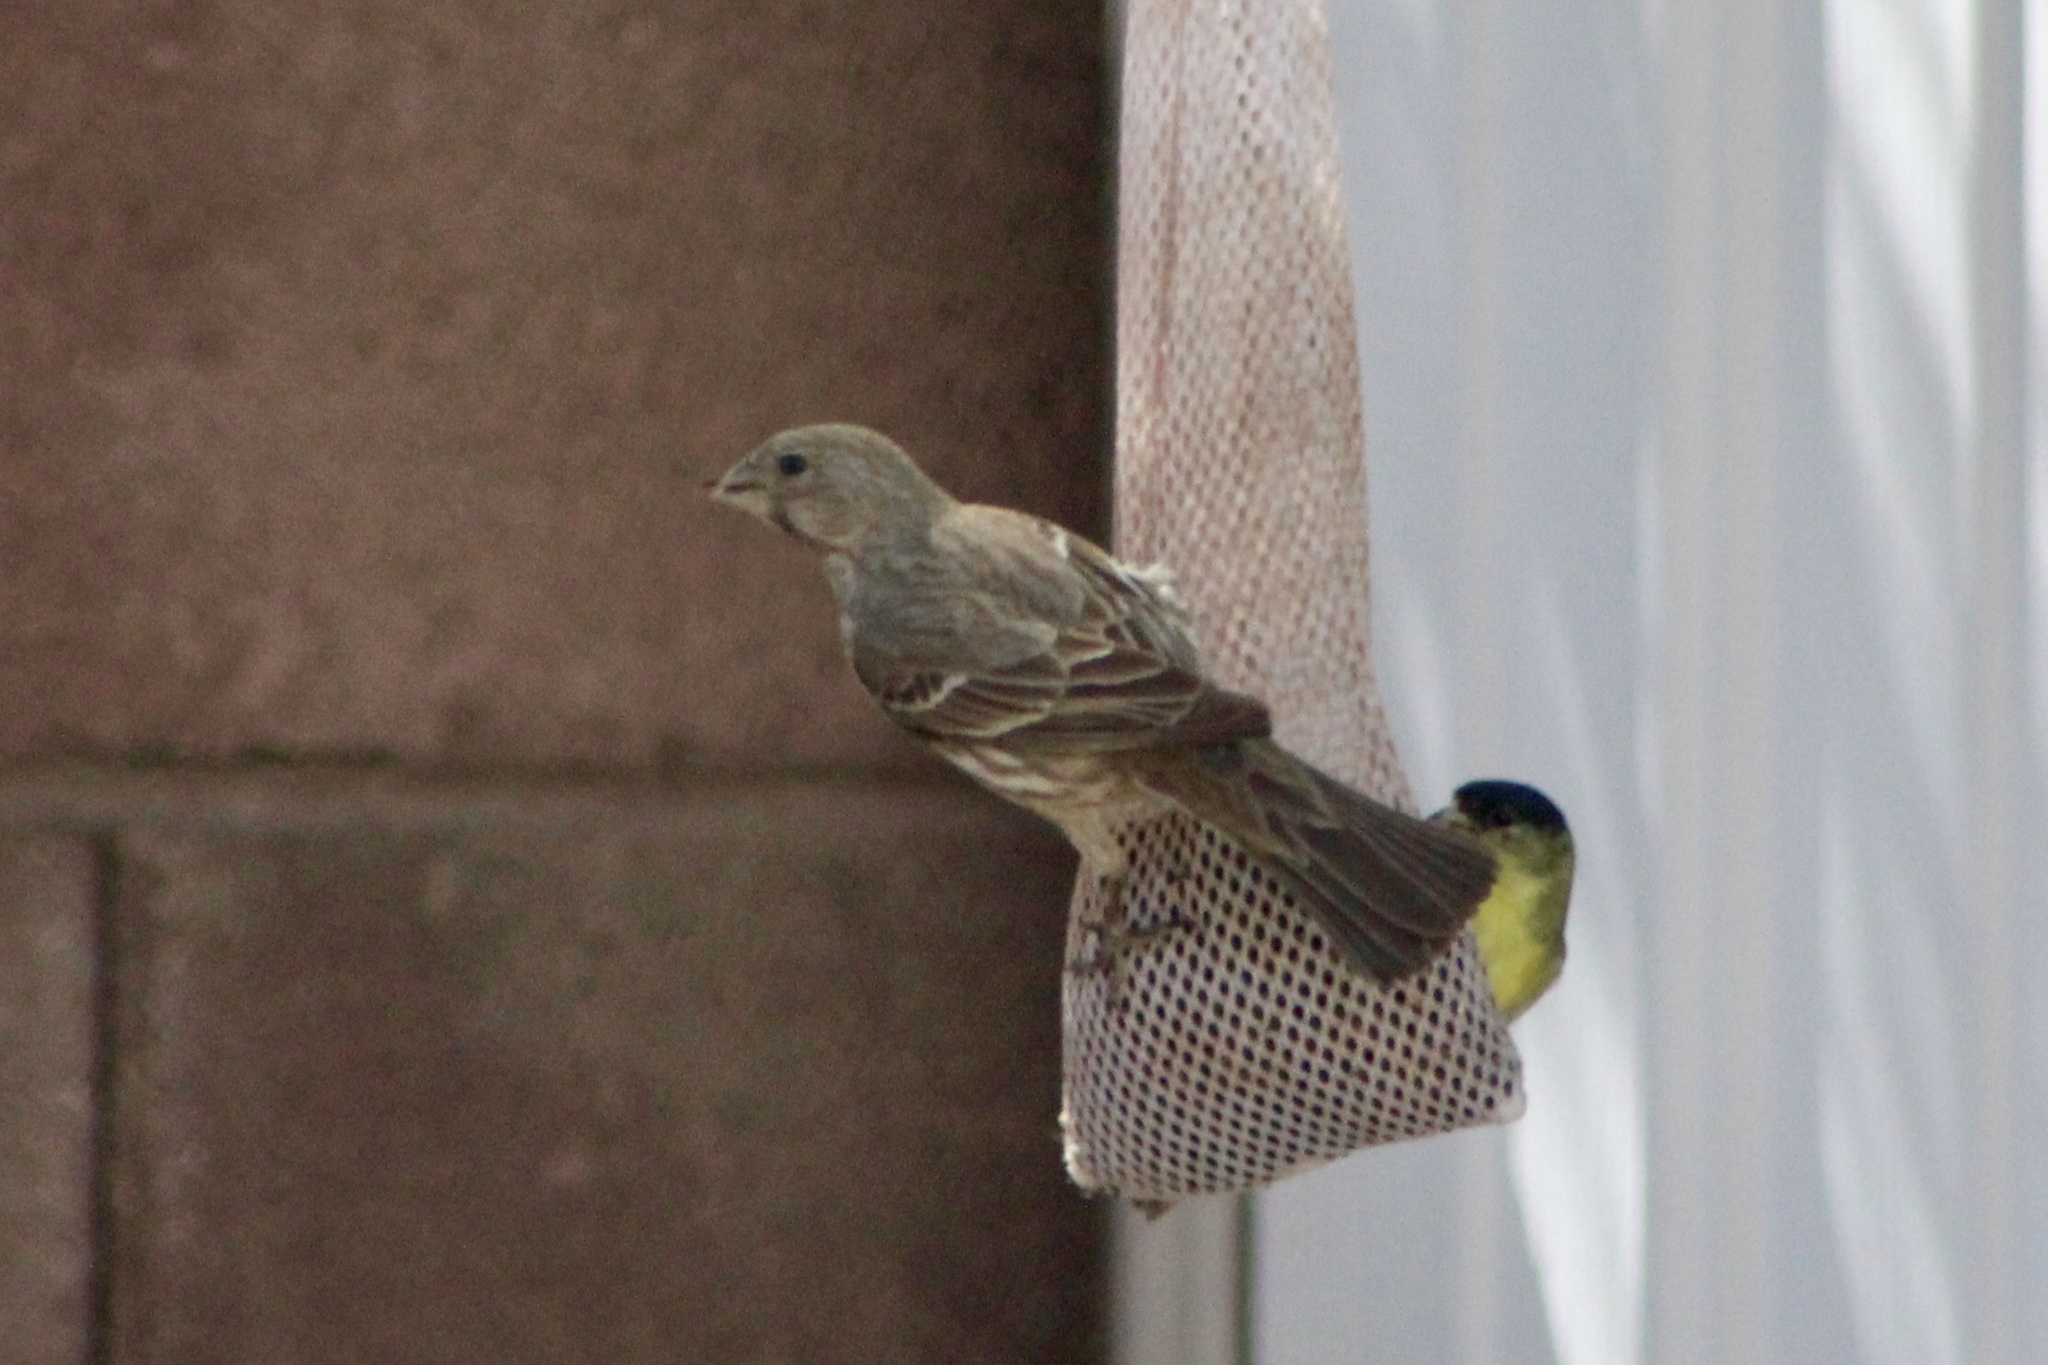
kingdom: Animalia
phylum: Chordata
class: Aves
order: Passeriformes
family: Fringillidae
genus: Haemorhous
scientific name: Haemorhous mexicanus
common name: House finch
